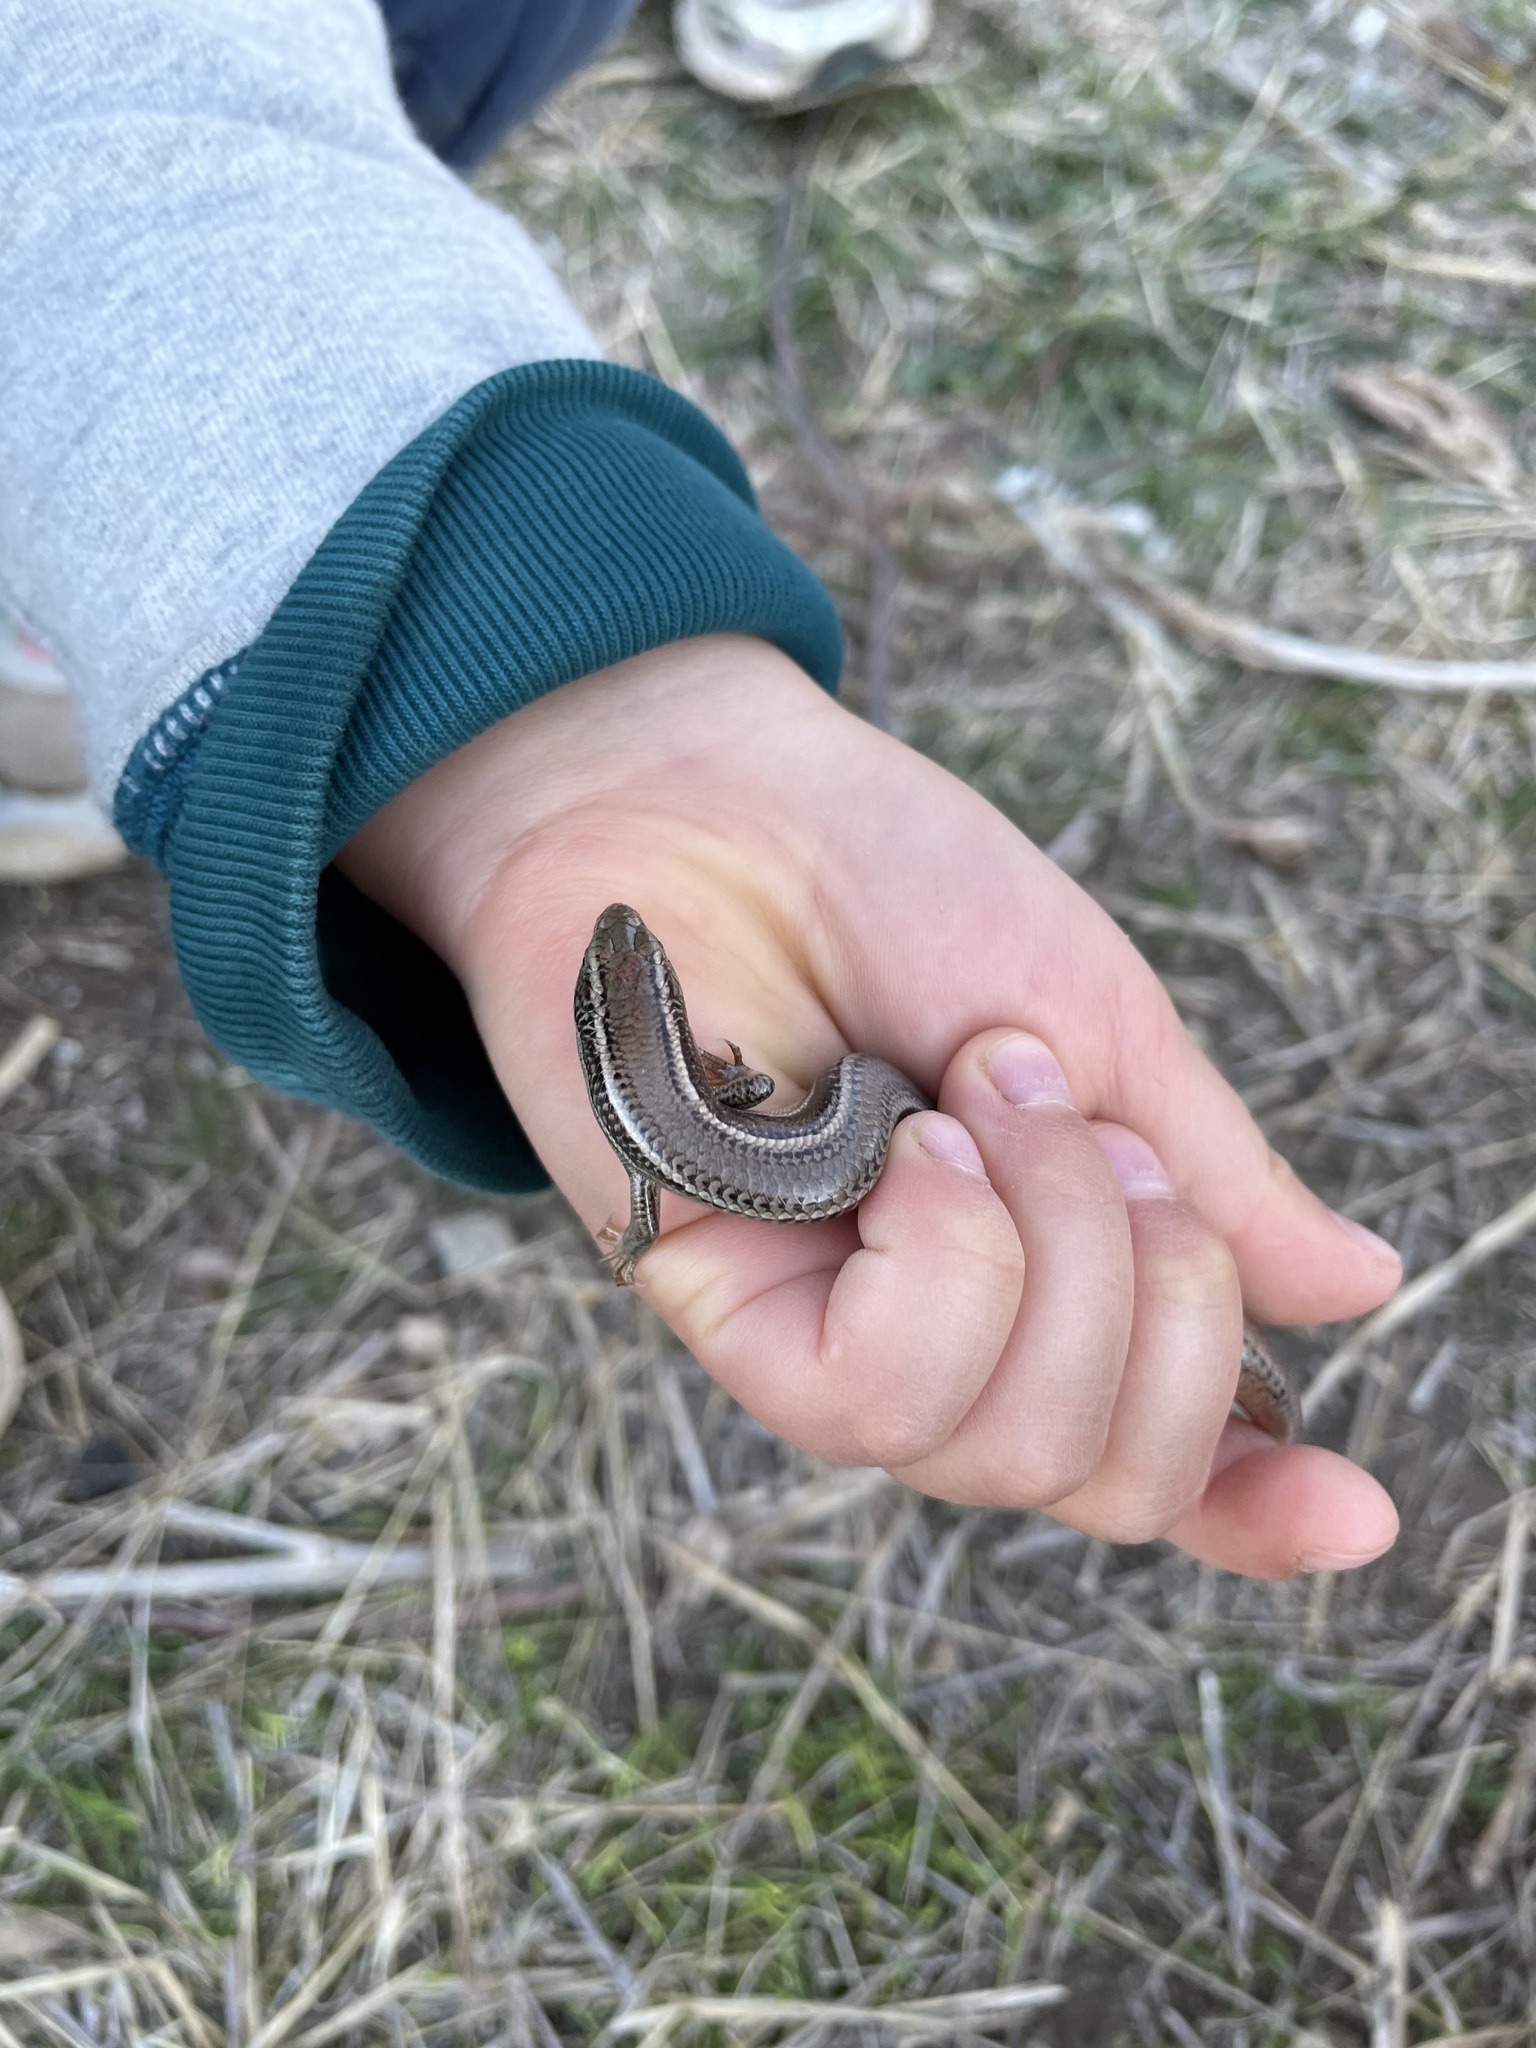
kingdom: Animalia
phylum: Chordata
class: Squamata
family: Scincidae
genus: Plestiodon
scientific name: Plestiodon skiltonianus
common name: Coronado island skink [interparietalis]
